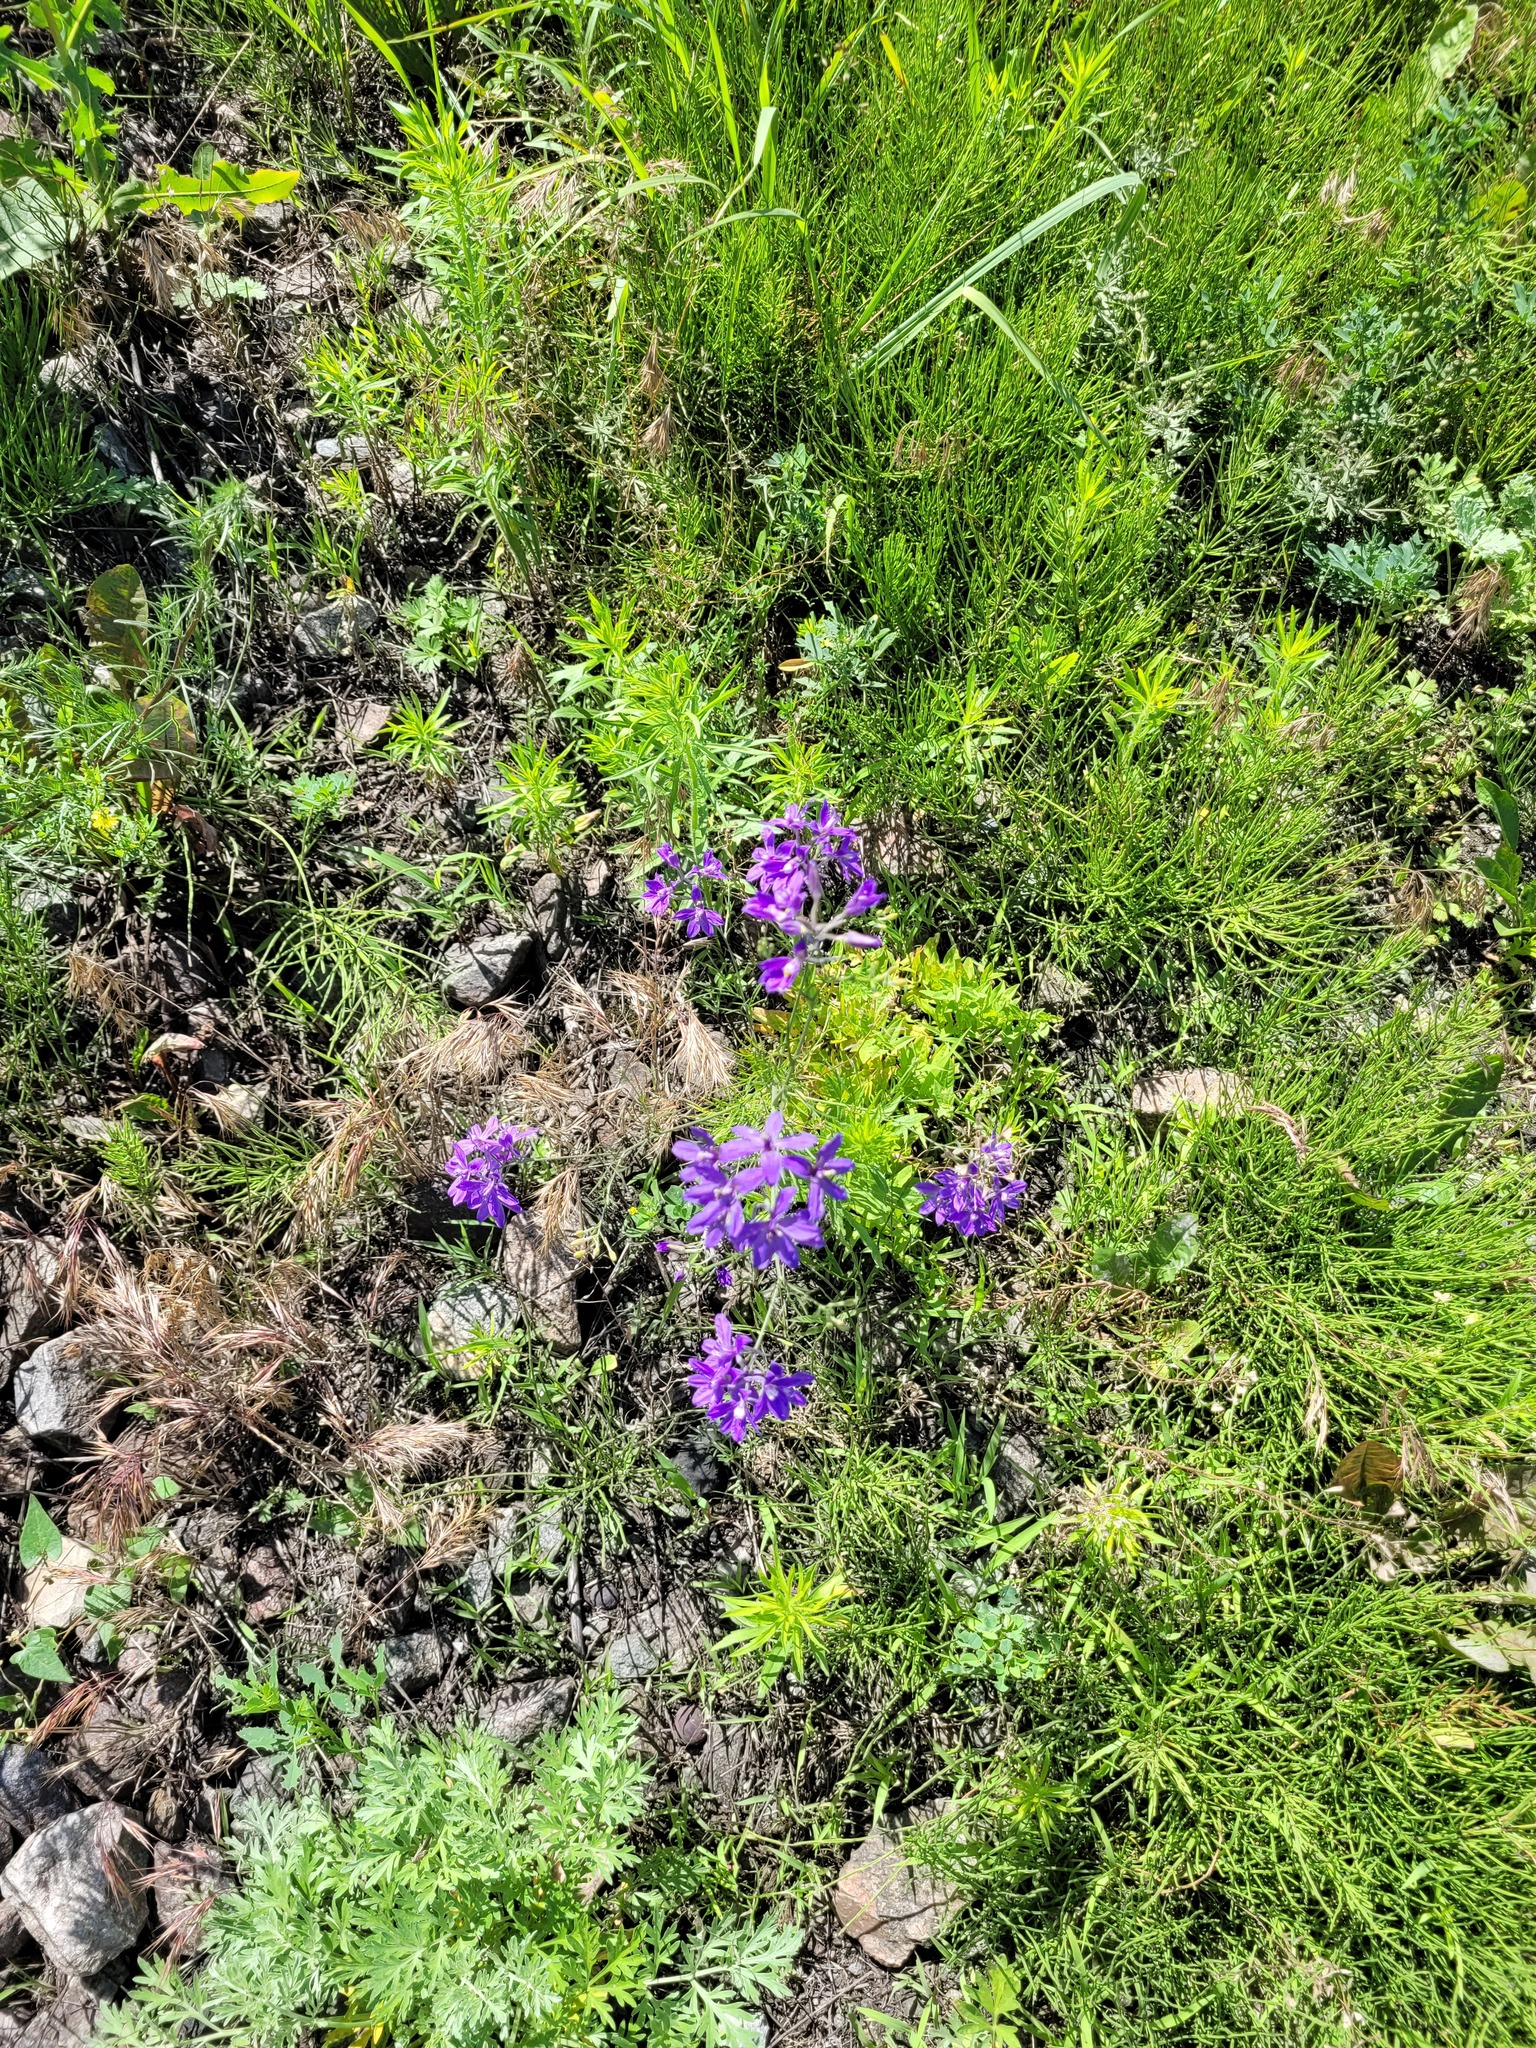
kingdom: Plantae
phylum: Tracheophyta
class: Magnoliopsida
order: Ranunculales
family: Ranunculaceae
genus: Delphinium
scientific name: Delphinium consolida
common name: Branching larkspur
